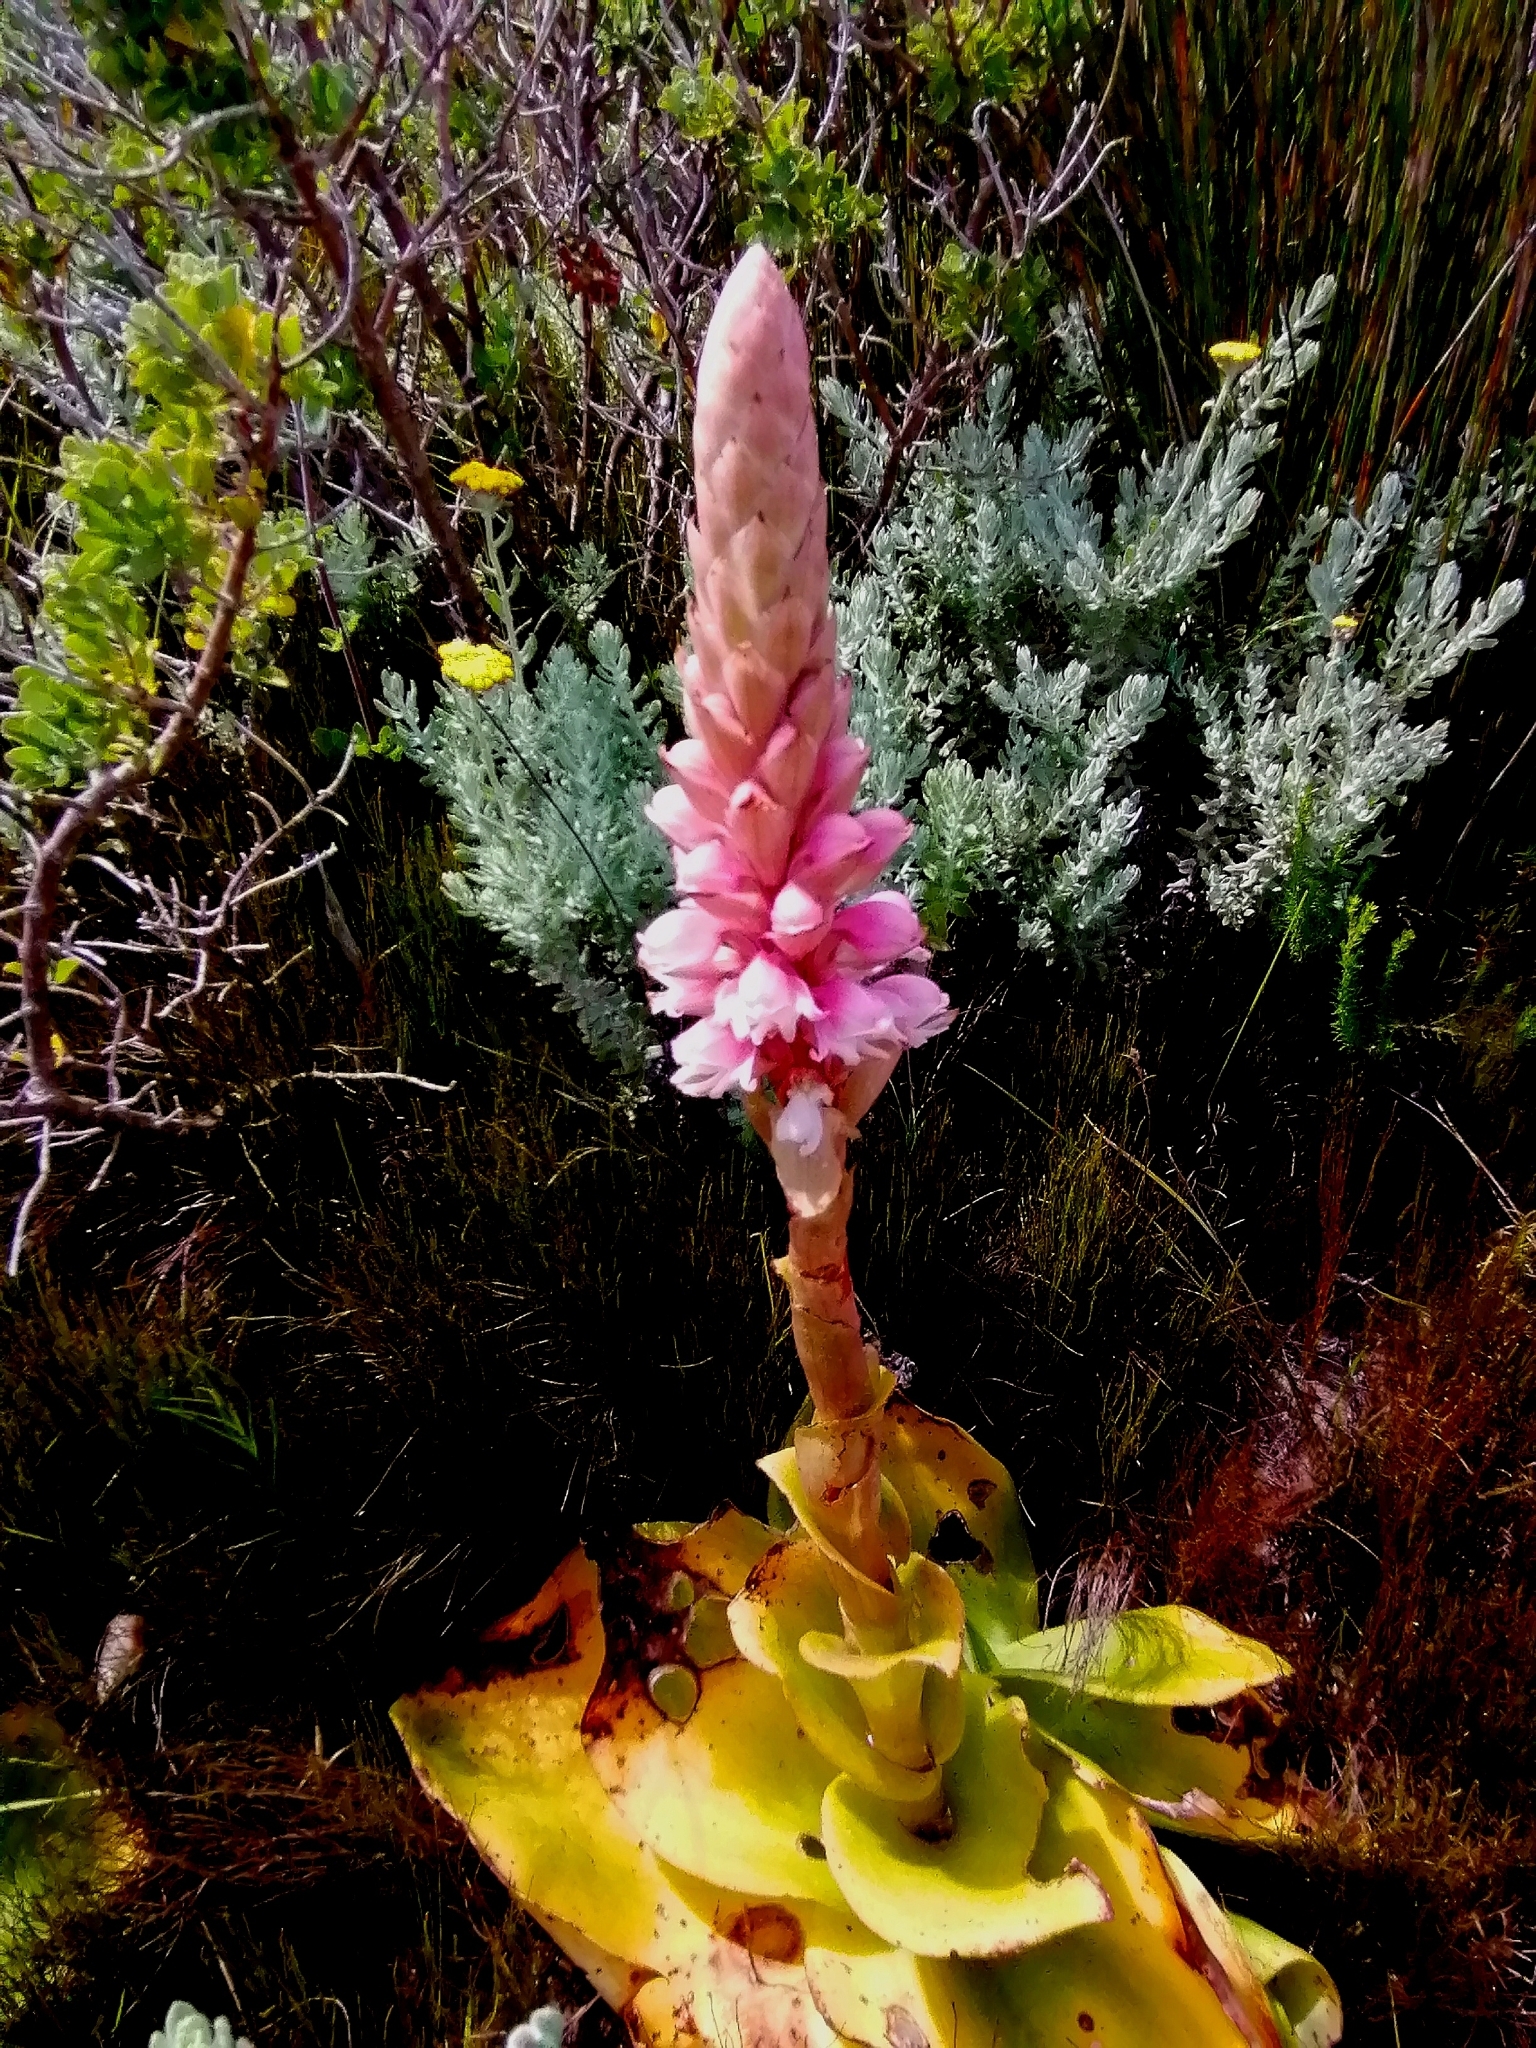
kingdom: Plantae
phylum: Tracheophyta
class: Liliopsida
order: Asparagales
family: Orchidaceae
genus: Satyrium
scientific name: Satyrium carneum
